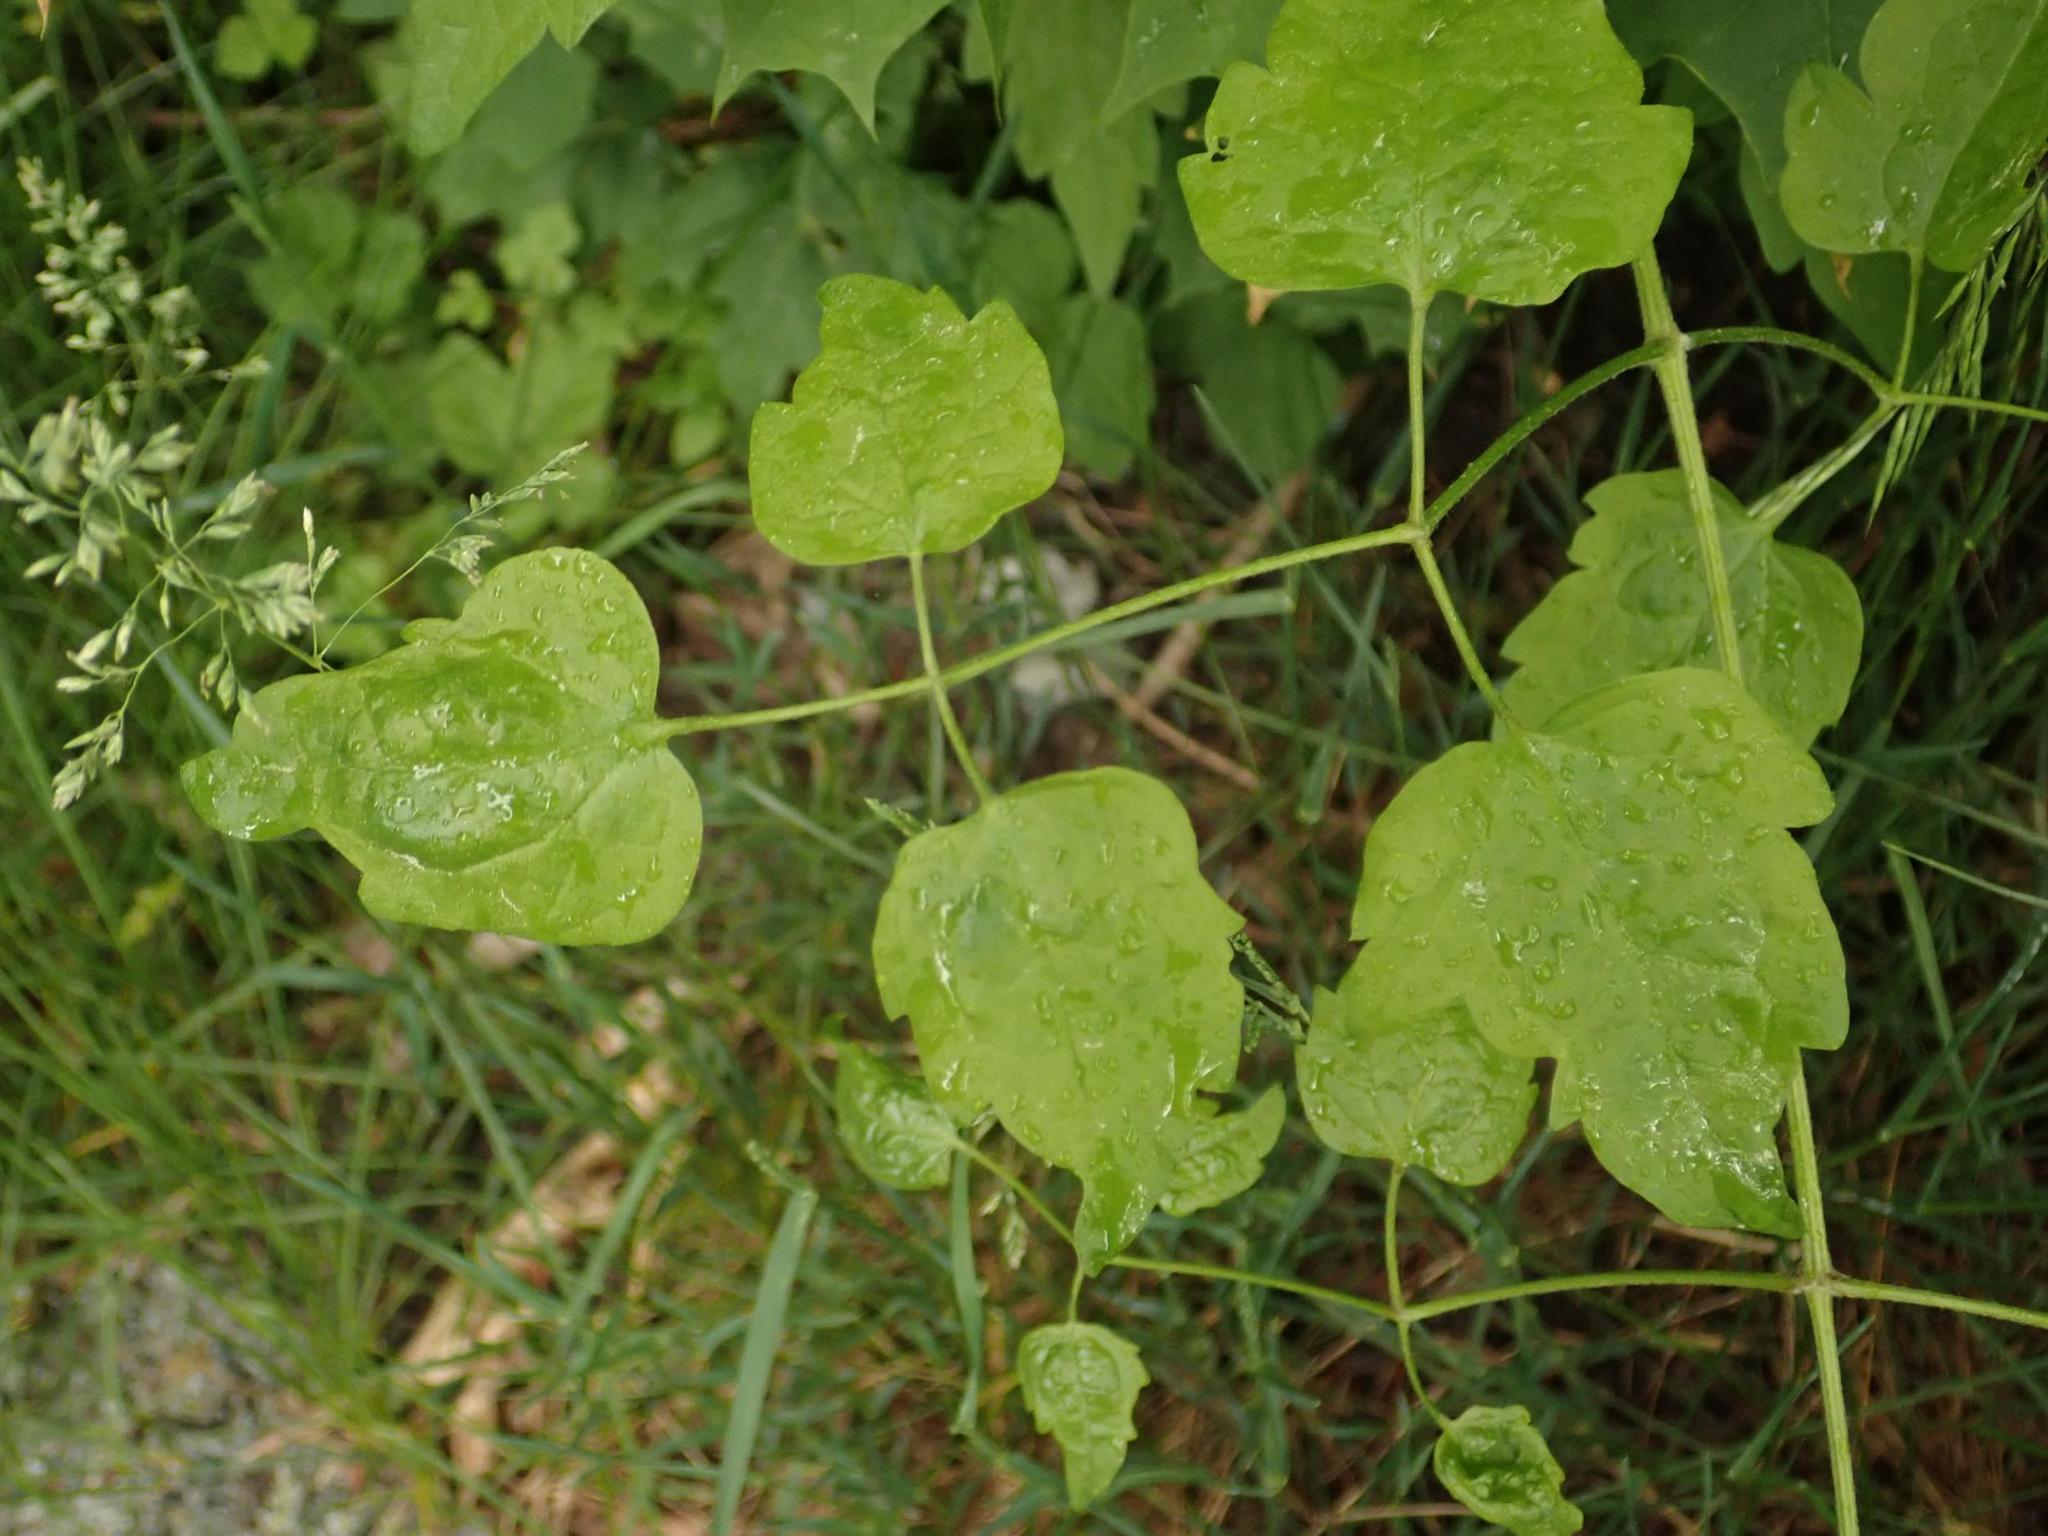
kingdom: Plantae
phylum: Tracheophyta
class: Magnoliopsida
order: Ranunculales
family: Ranunculaceae
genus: Clematis
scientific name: Clematis vitalba
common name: Evergreen clematis
